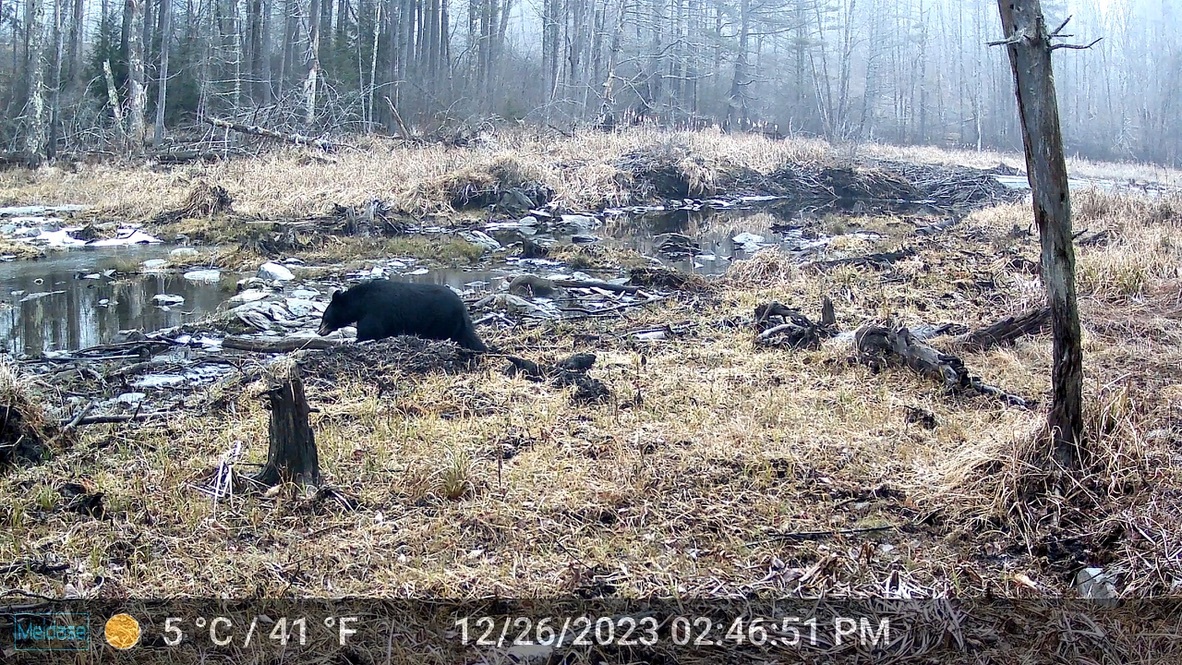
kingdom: Animalia
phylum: Chordata
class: Mammalia
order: Carnivora
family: Ursidae
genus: Ursus
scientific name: Ursus americanus
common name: American black bear
